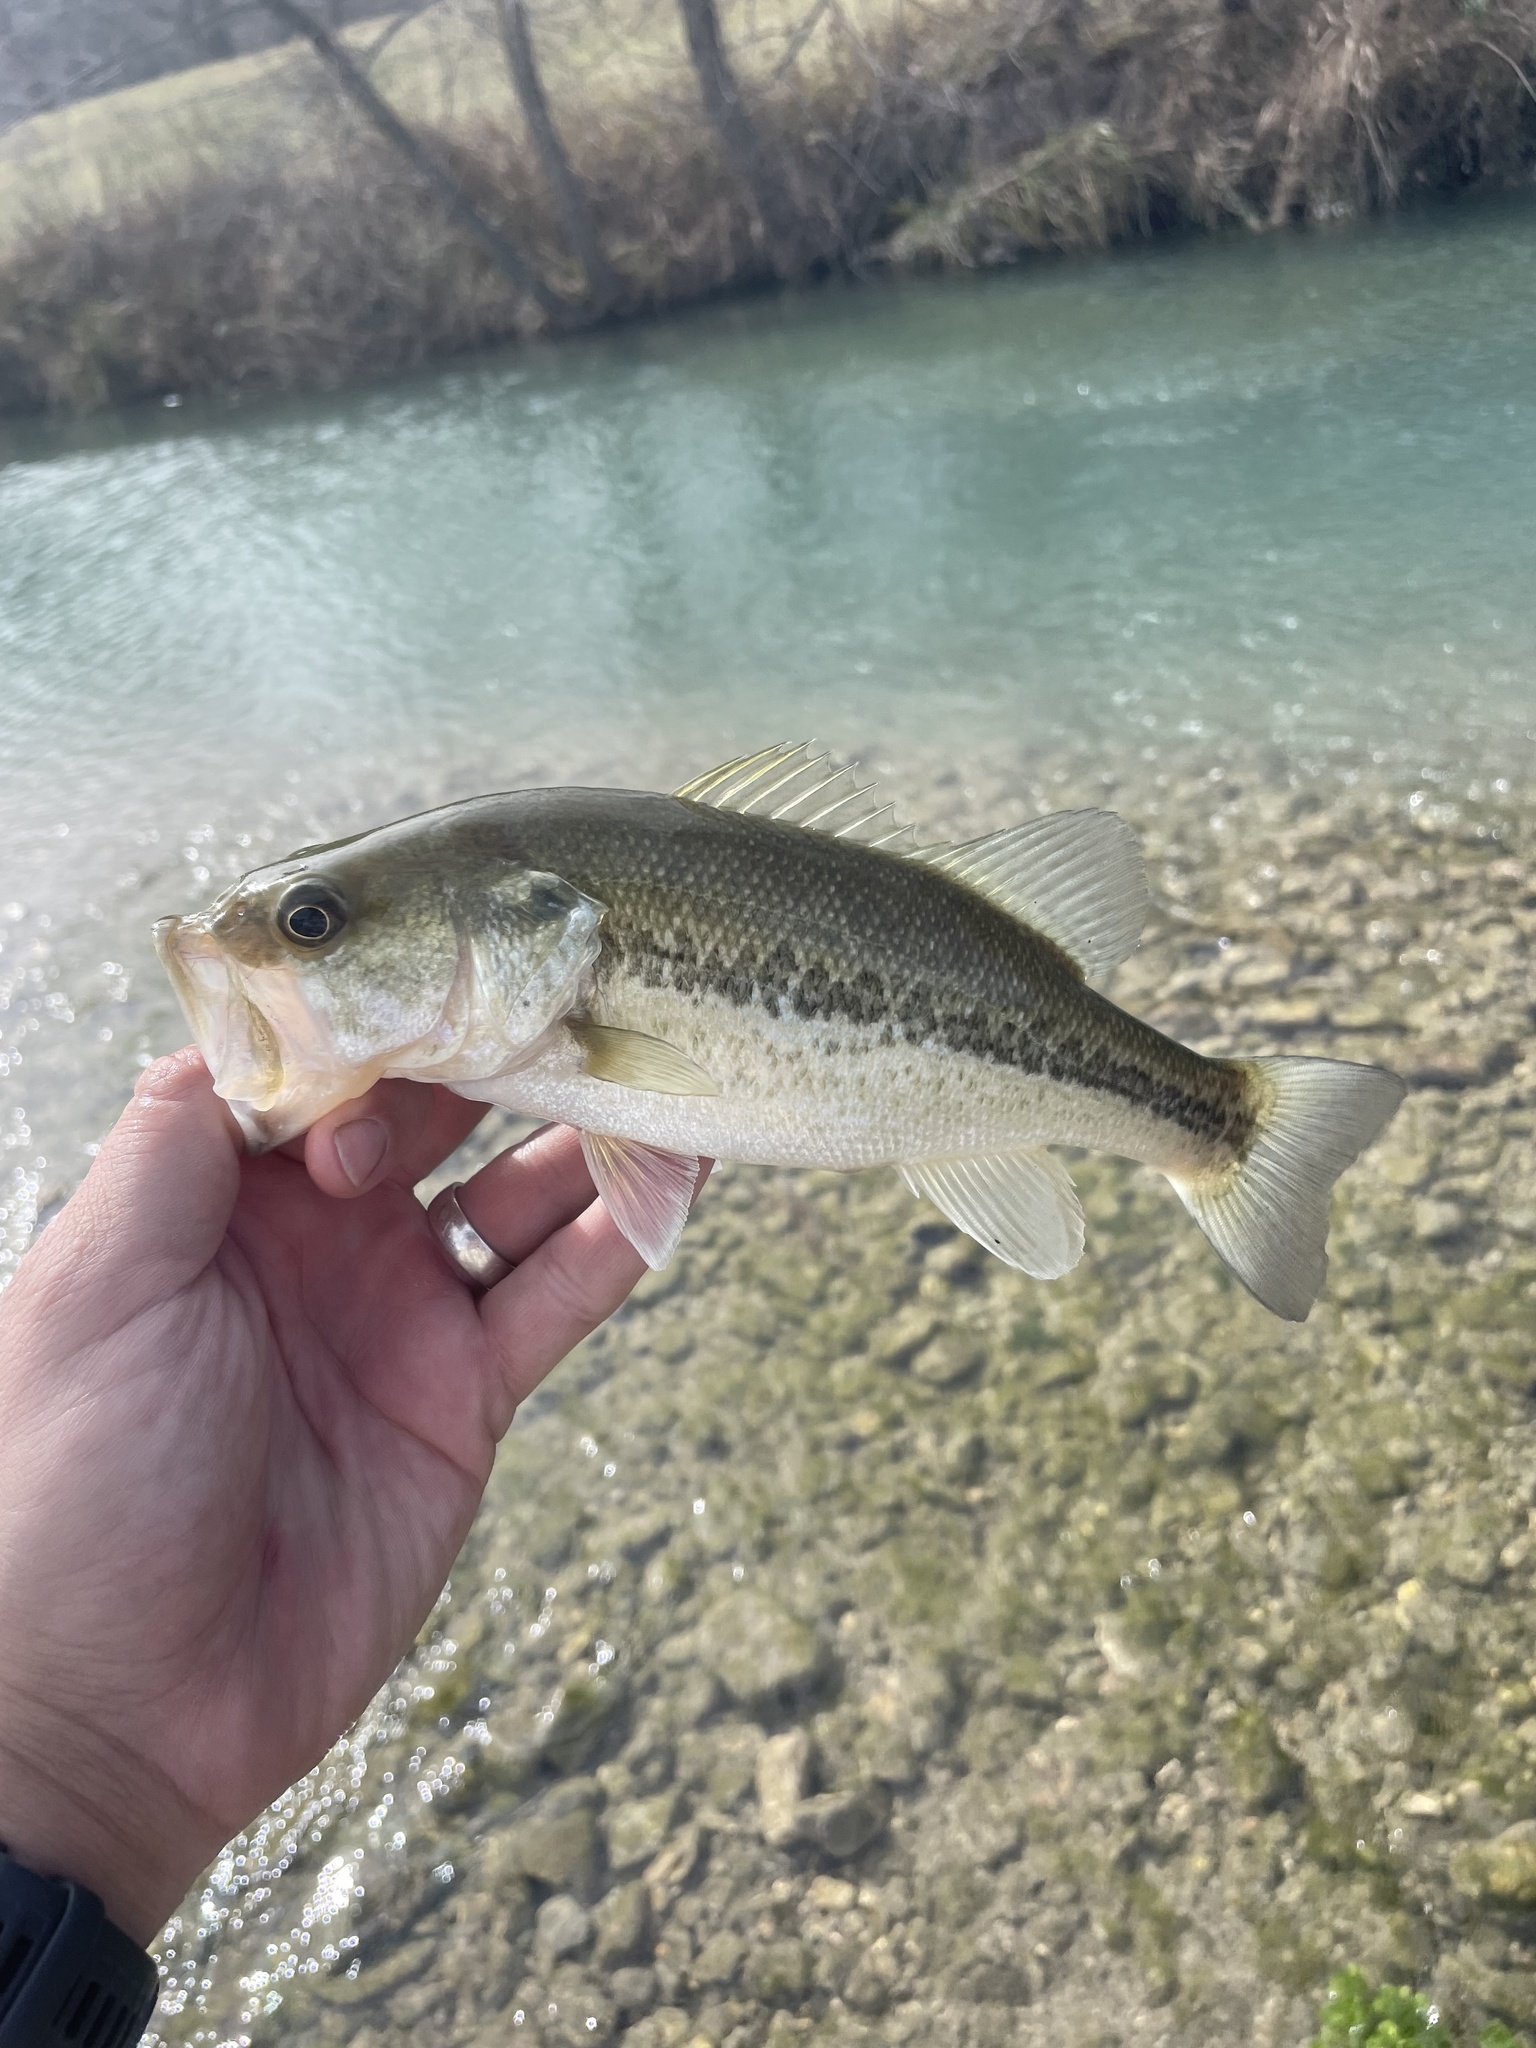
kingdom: Animalia
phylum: Chordata
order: Perciformes
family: Centrarchidae
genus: Micropterus
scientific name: Micropterus
